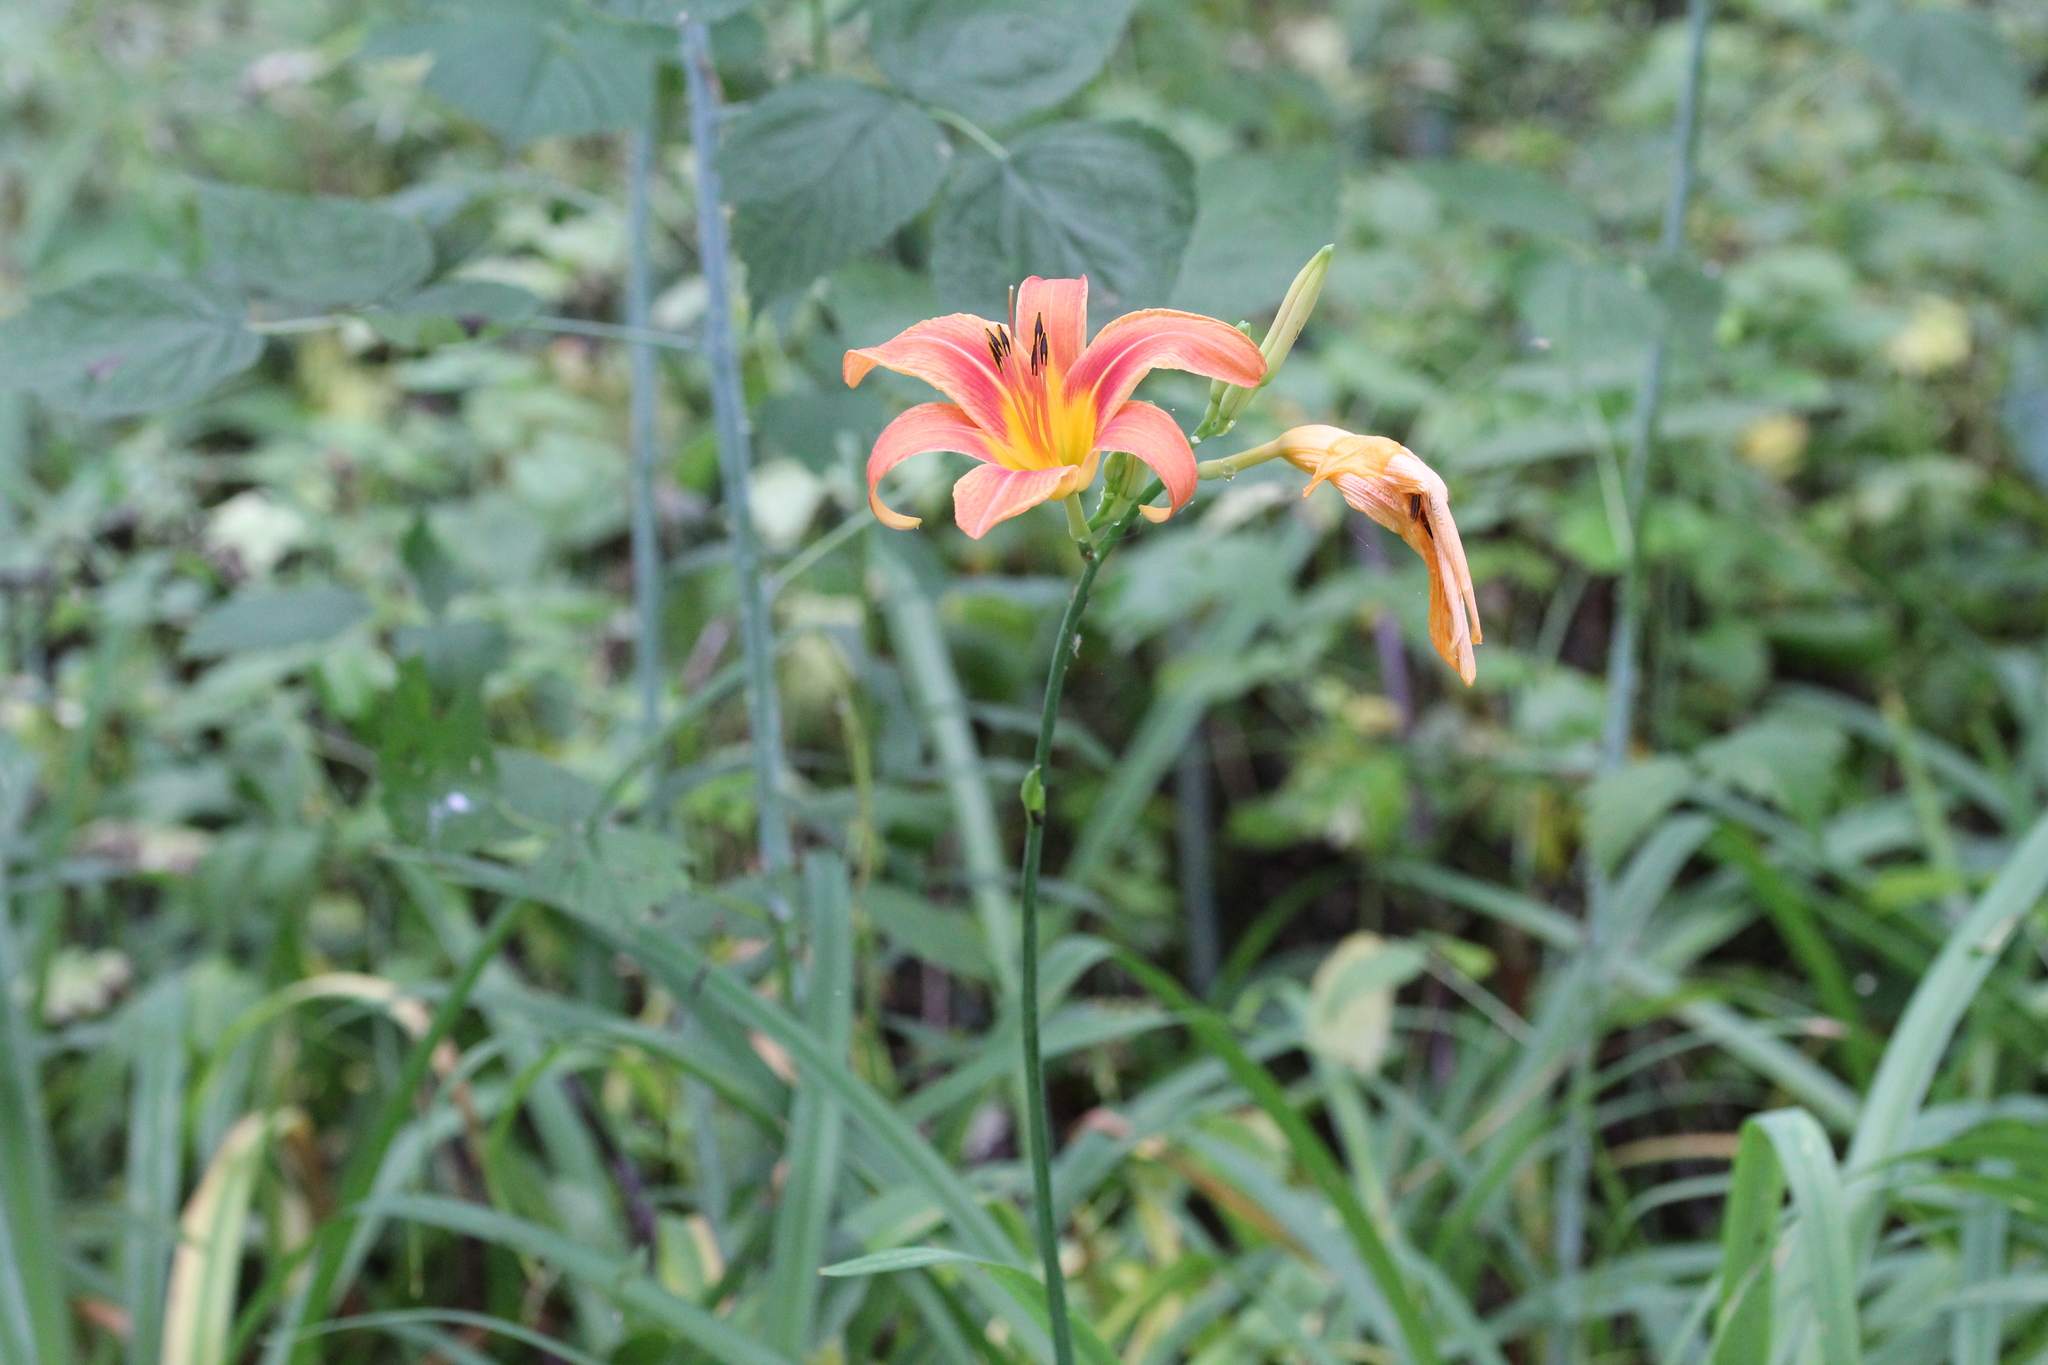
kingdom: Plantae
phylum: Tracheophyta
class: Liliopsida
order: Asparagales
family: Asphodelaceae
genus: Hemerocallis
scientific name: Hemerocallis fulva
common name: Orange day-lily
